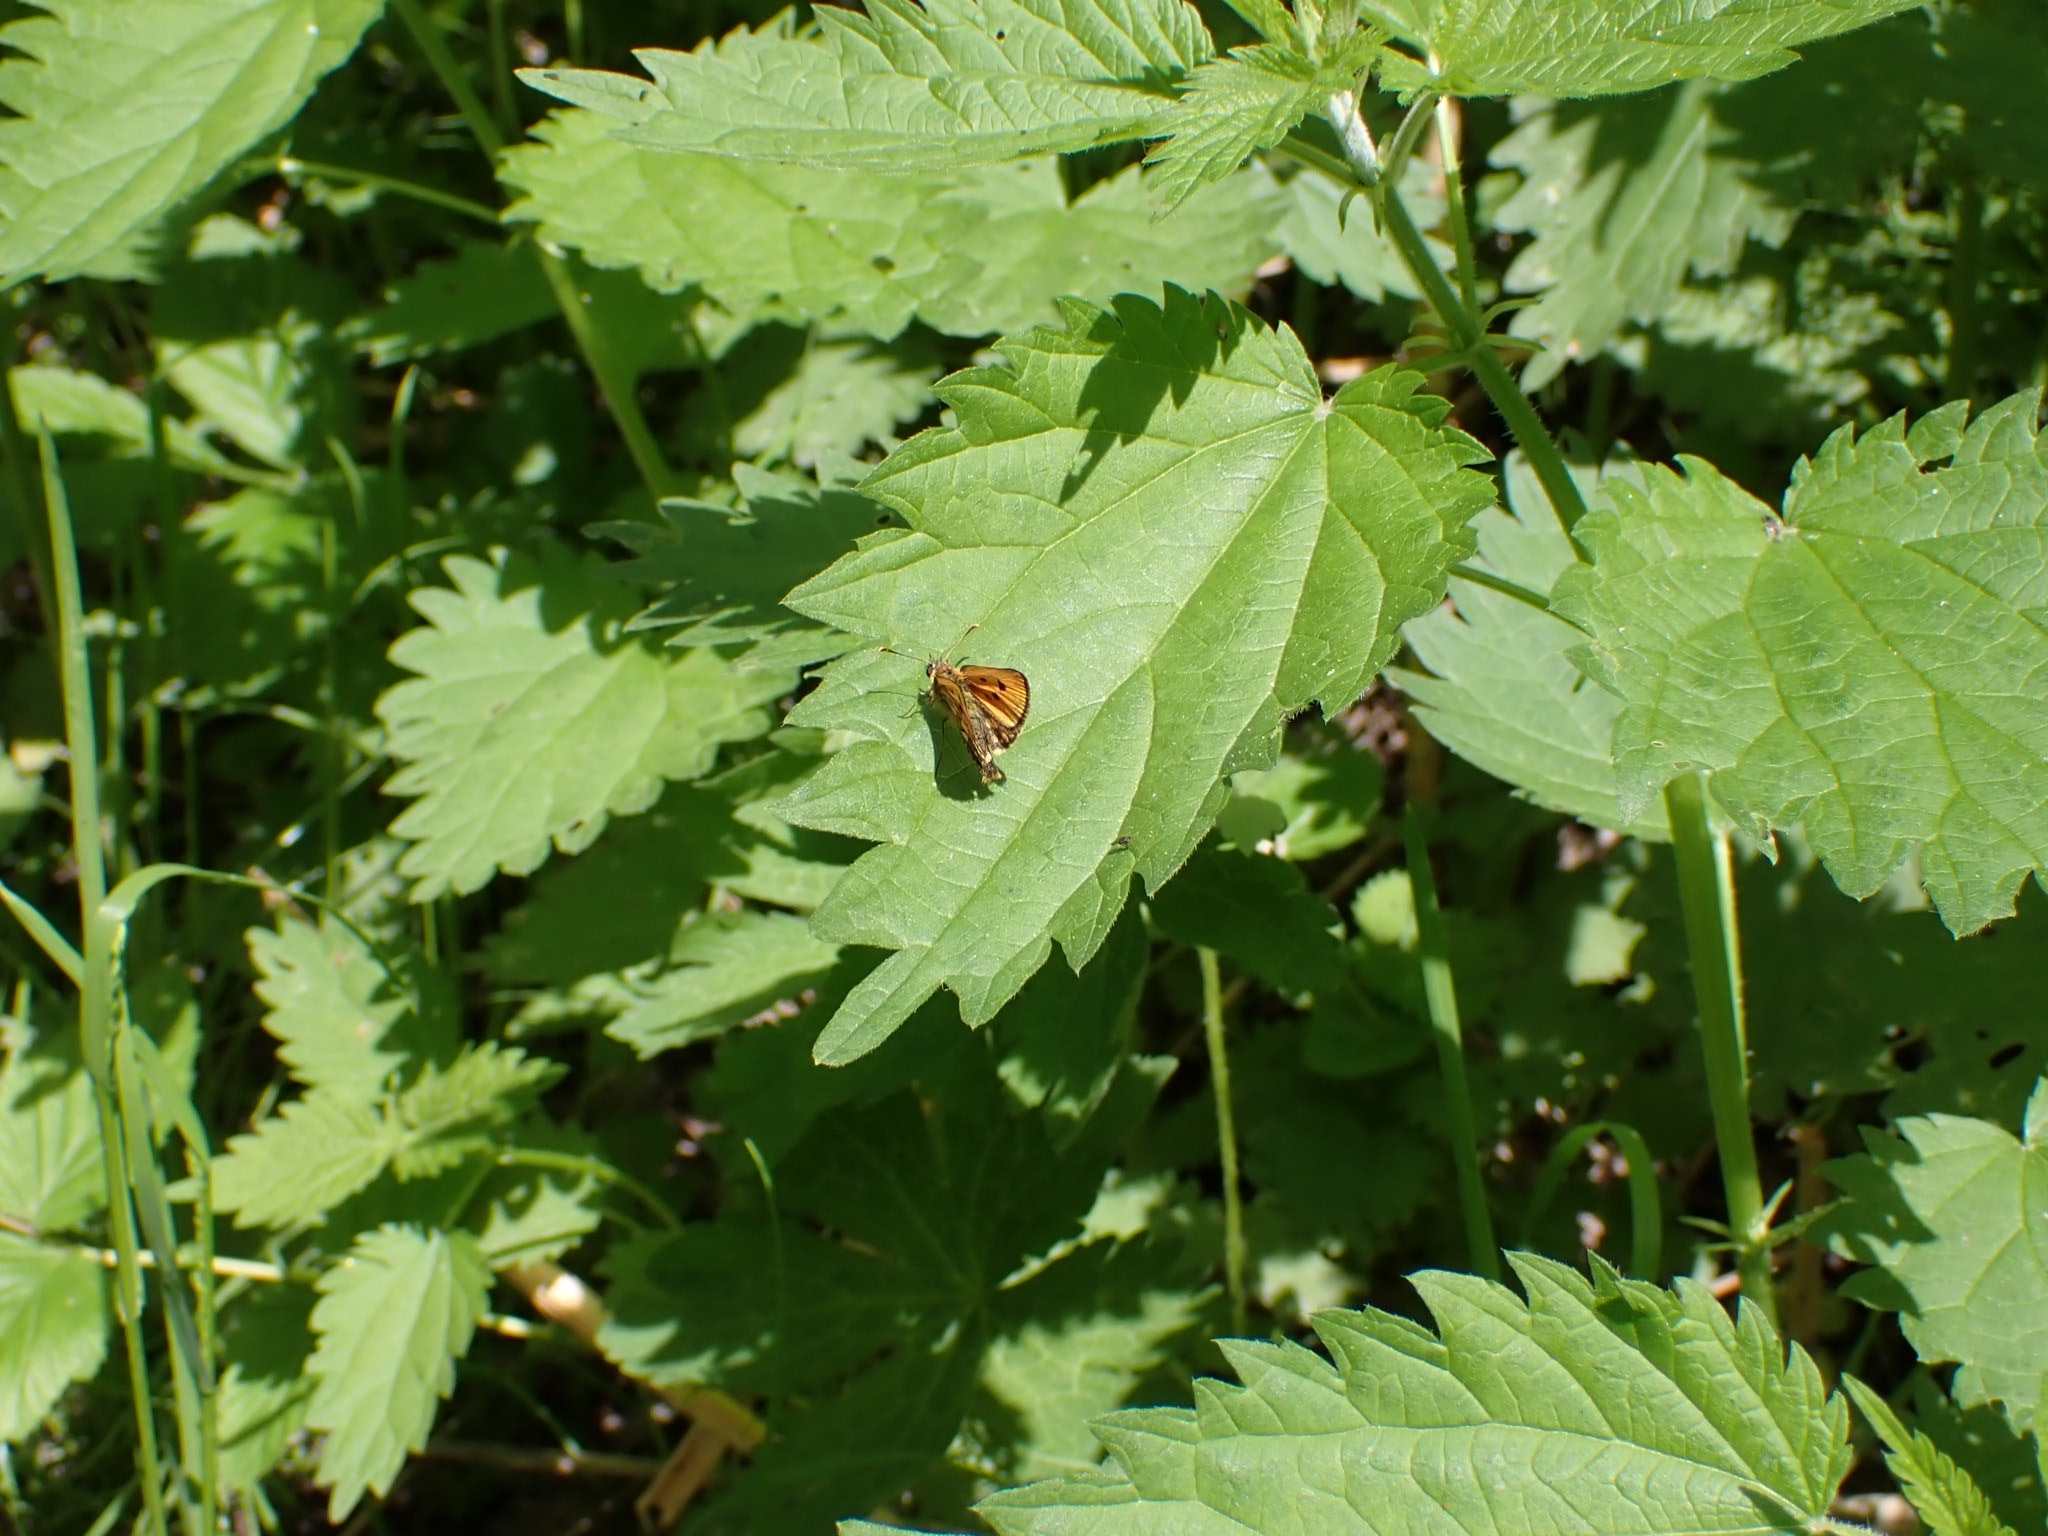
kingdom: Animalia
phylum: Arthropoda
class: Insecta
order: Lepidoptera
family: Hesperiidae
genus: Carterocephalus
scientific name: Carterocephalus silvicola
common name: Northern chequered skipper
